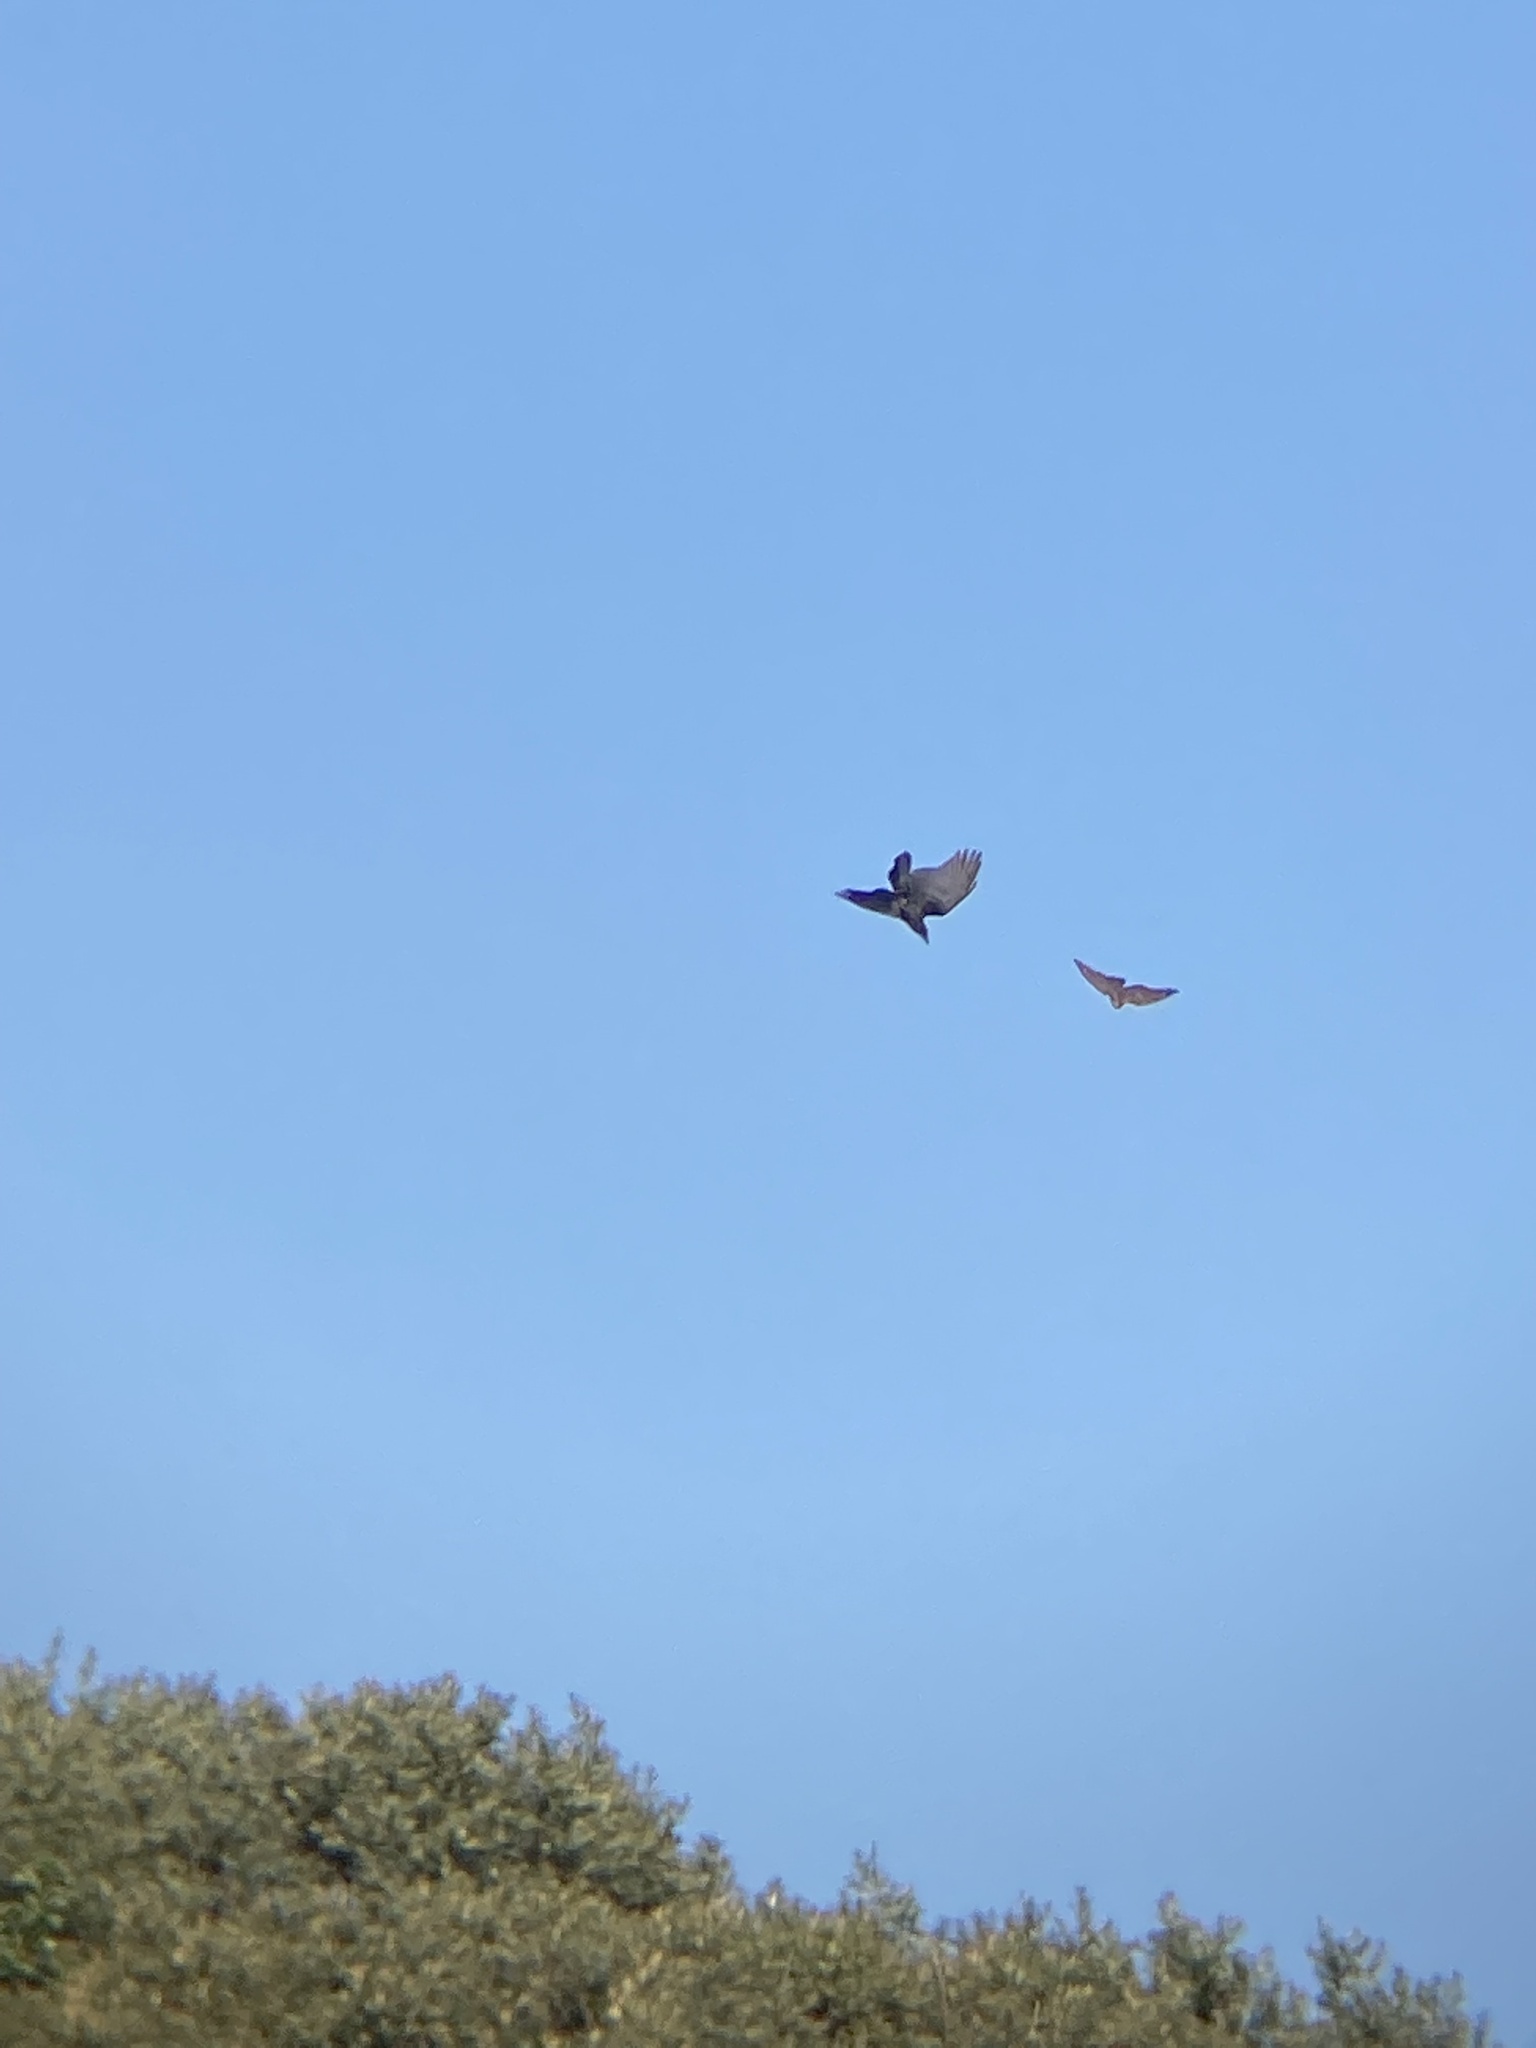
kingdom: Animalia
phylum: Chordata
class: Aves
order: Accipitriformes
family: Accipitridae
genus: Accipiter
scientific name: Accipiter nisus
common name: Eurasian sparrowhawk
